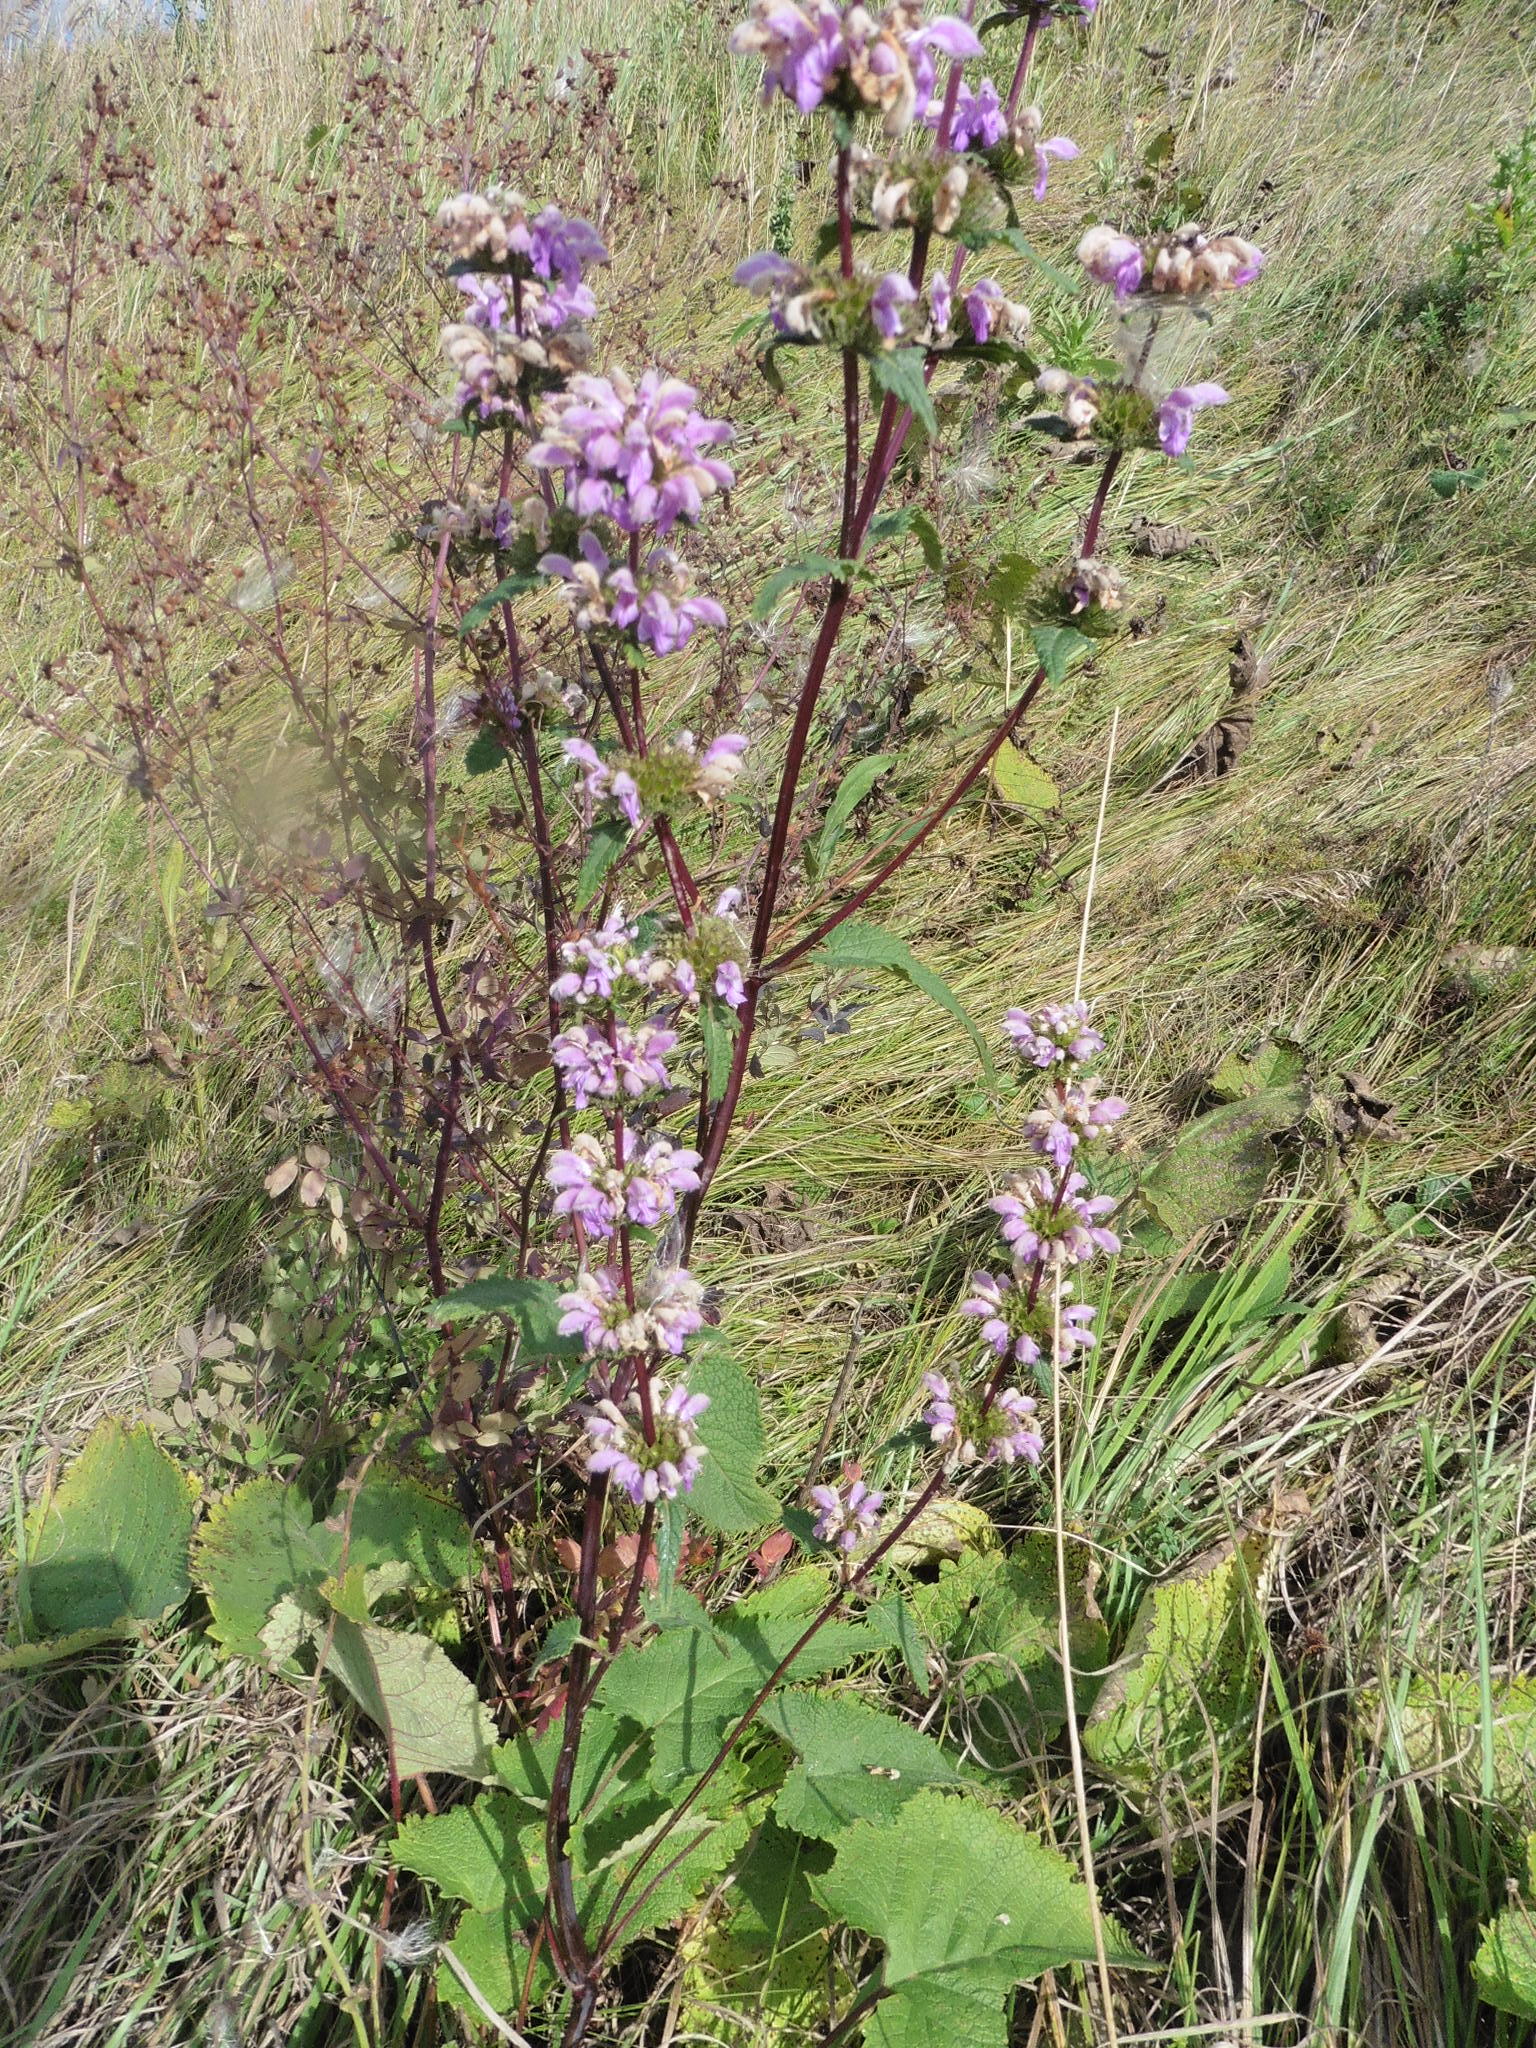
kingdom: Plantae
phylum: Tracheophyta
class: Magnoliopsida
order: Lamiales
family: Lamiaceae
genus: Phlomoides
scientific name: Phlomoides tuberosa
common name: Tuberous jerusalem sage
